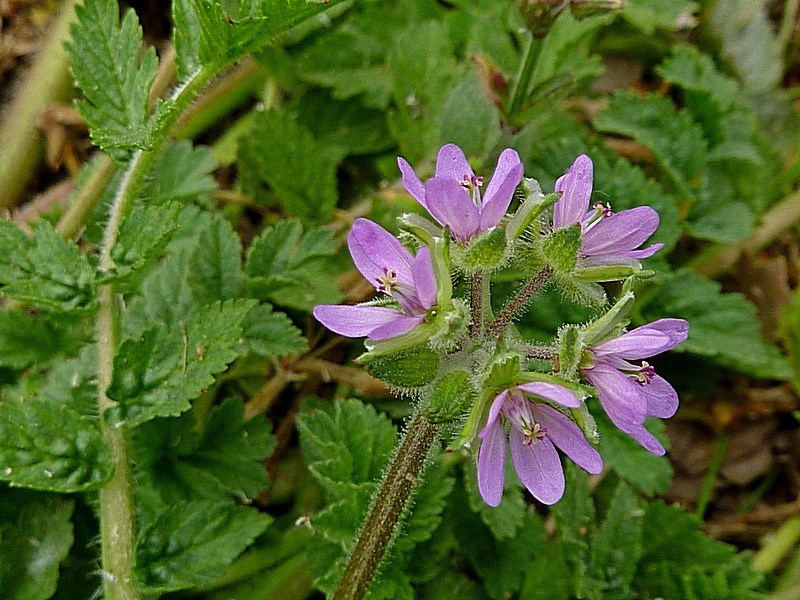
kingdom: Plantae
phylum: Tracheophyta
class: Magnoliopsida
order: Geraniales
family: Geraniaceae
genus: Erodium
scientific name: Erodium moschatum
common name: Musk stork's-bill
